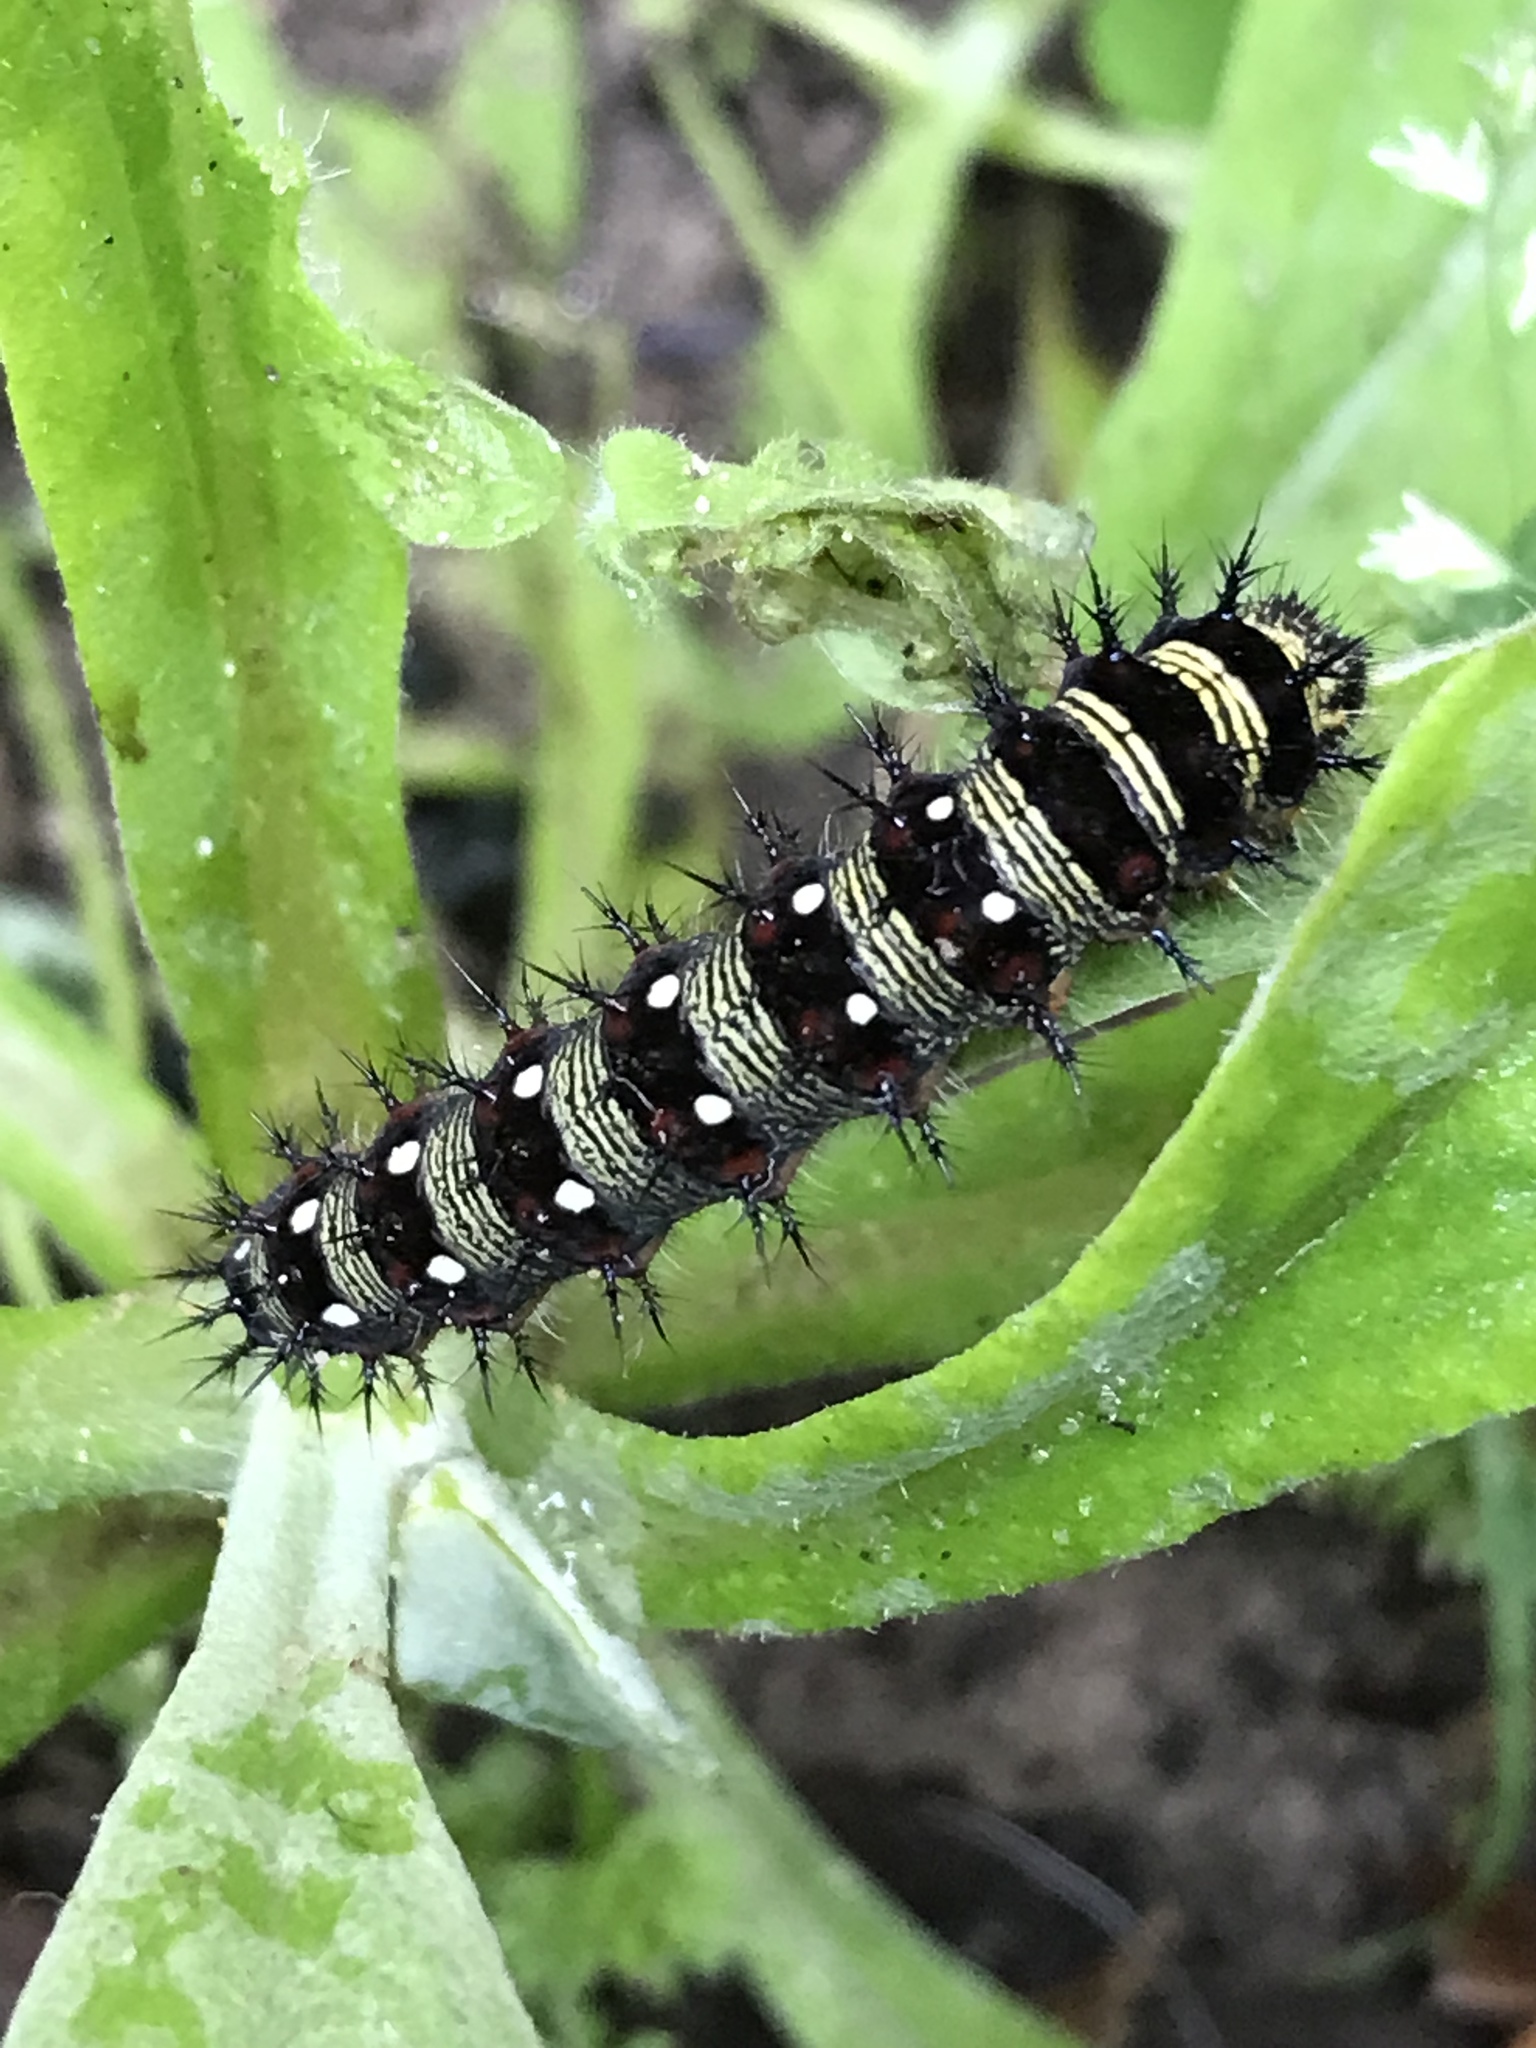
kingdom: Animalia
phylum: Arthropoda
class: Insecta
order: Lepidoptera
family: Nymphalidae
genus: Vanessa
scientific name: Vanessa virginiensis
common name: American lady
